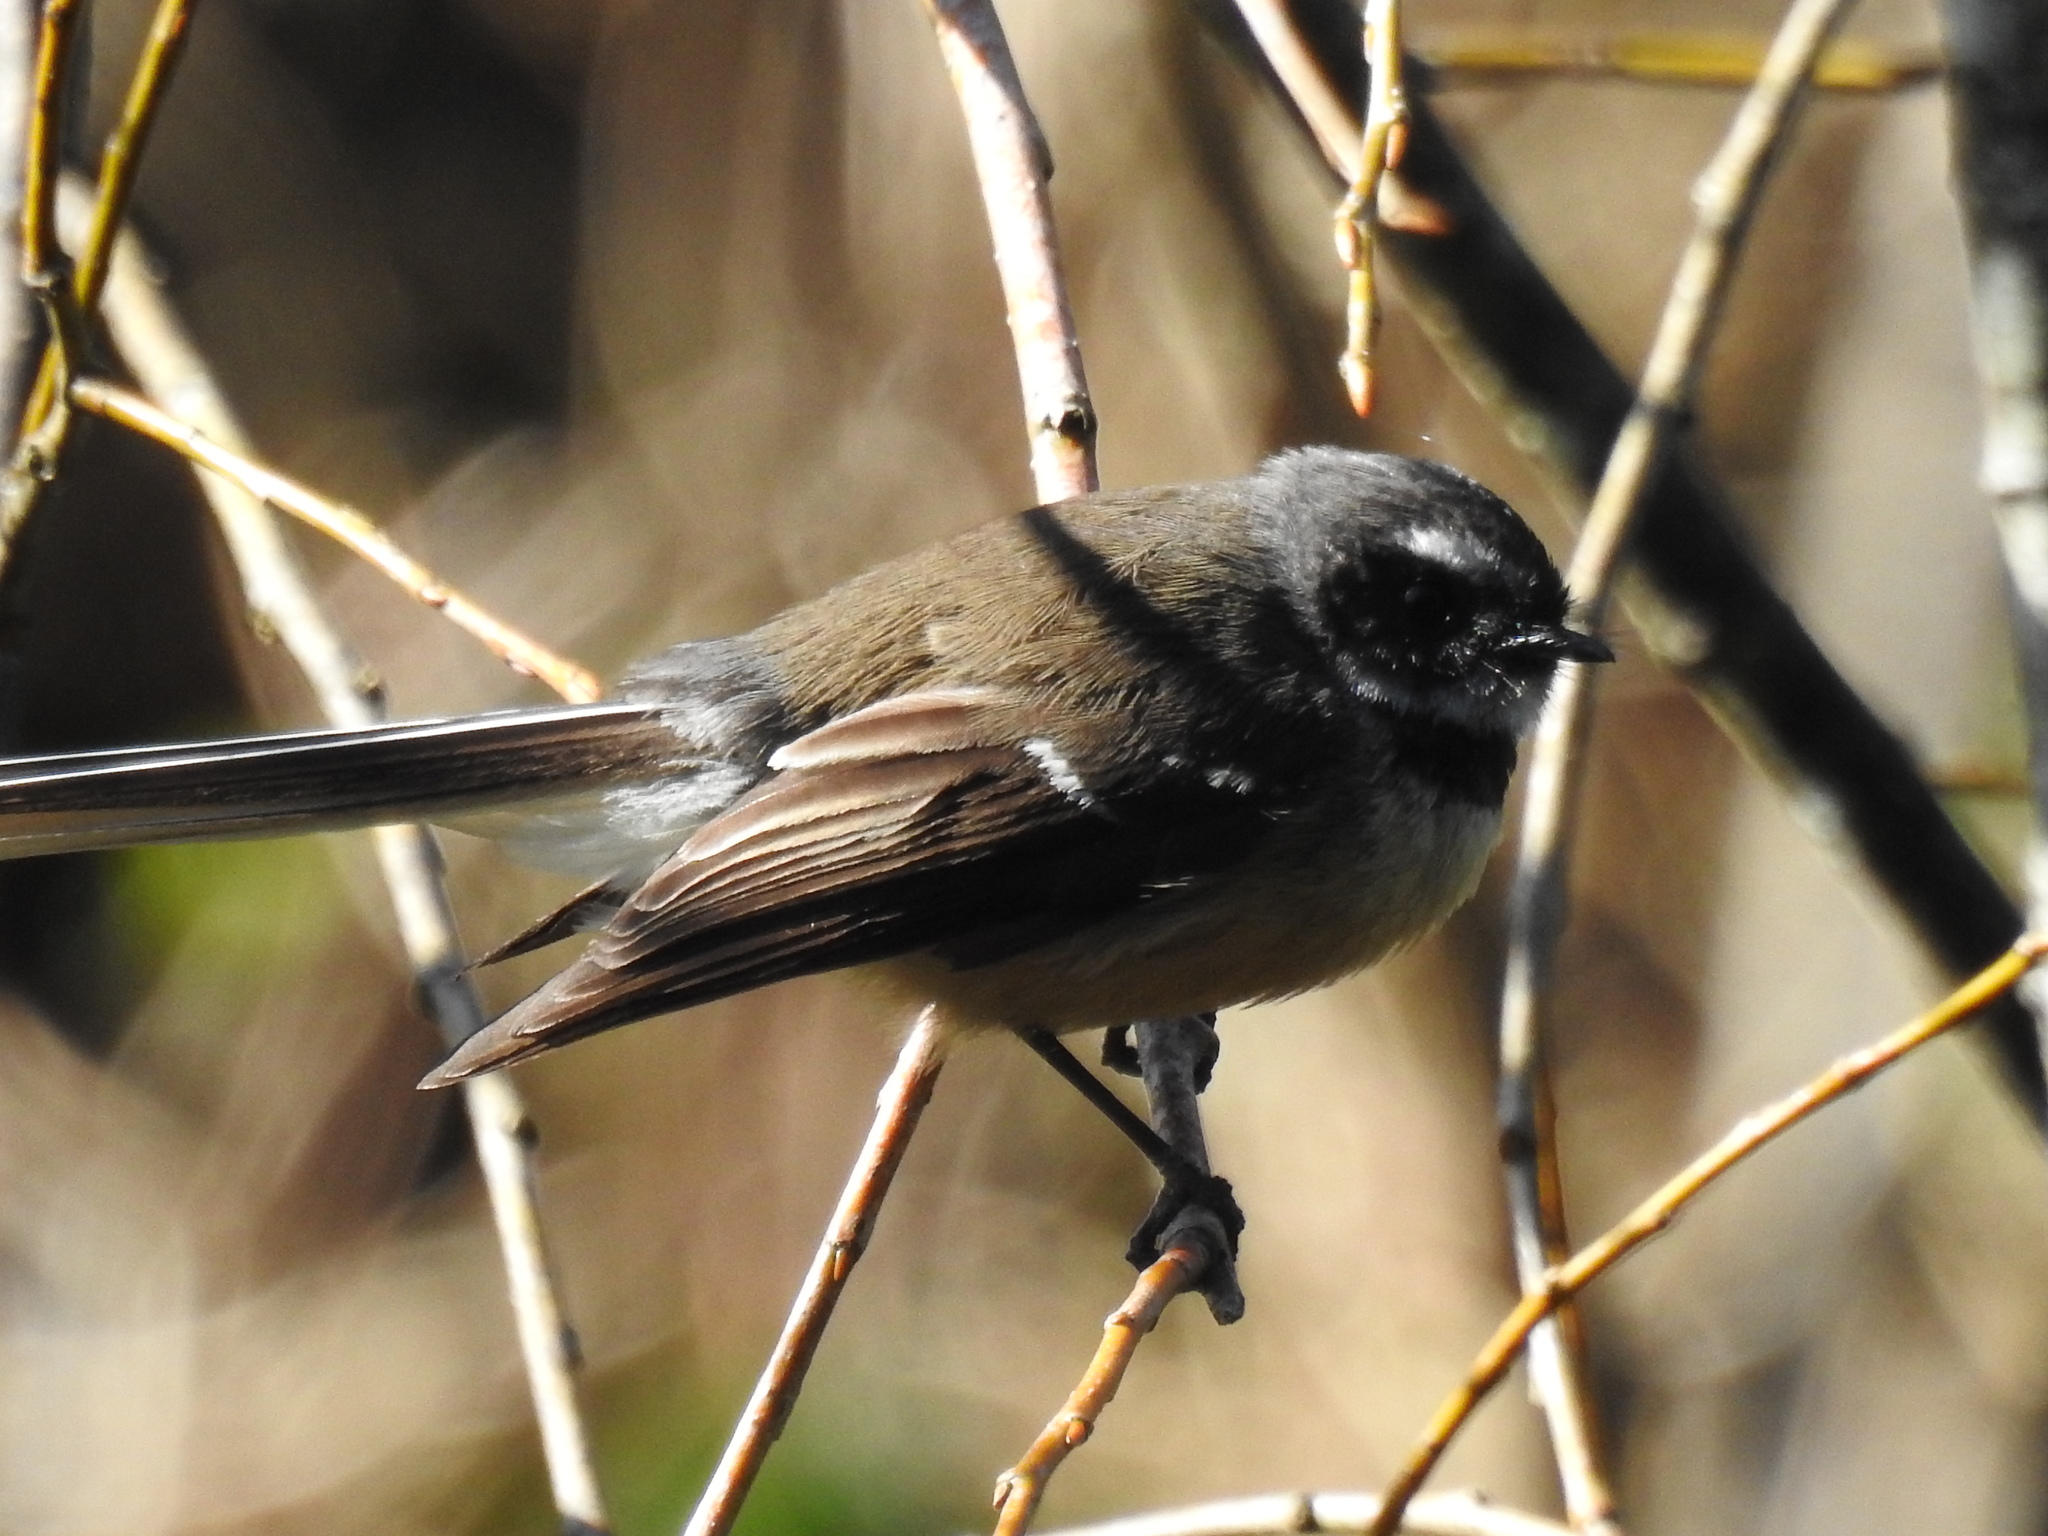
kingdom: Animalia
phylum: Chordata
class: Aves
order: Passeriformes
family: Rhipiduridae
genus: Rhipidura
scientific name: Rhipidura fuliginosa
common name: New zealand fantail
